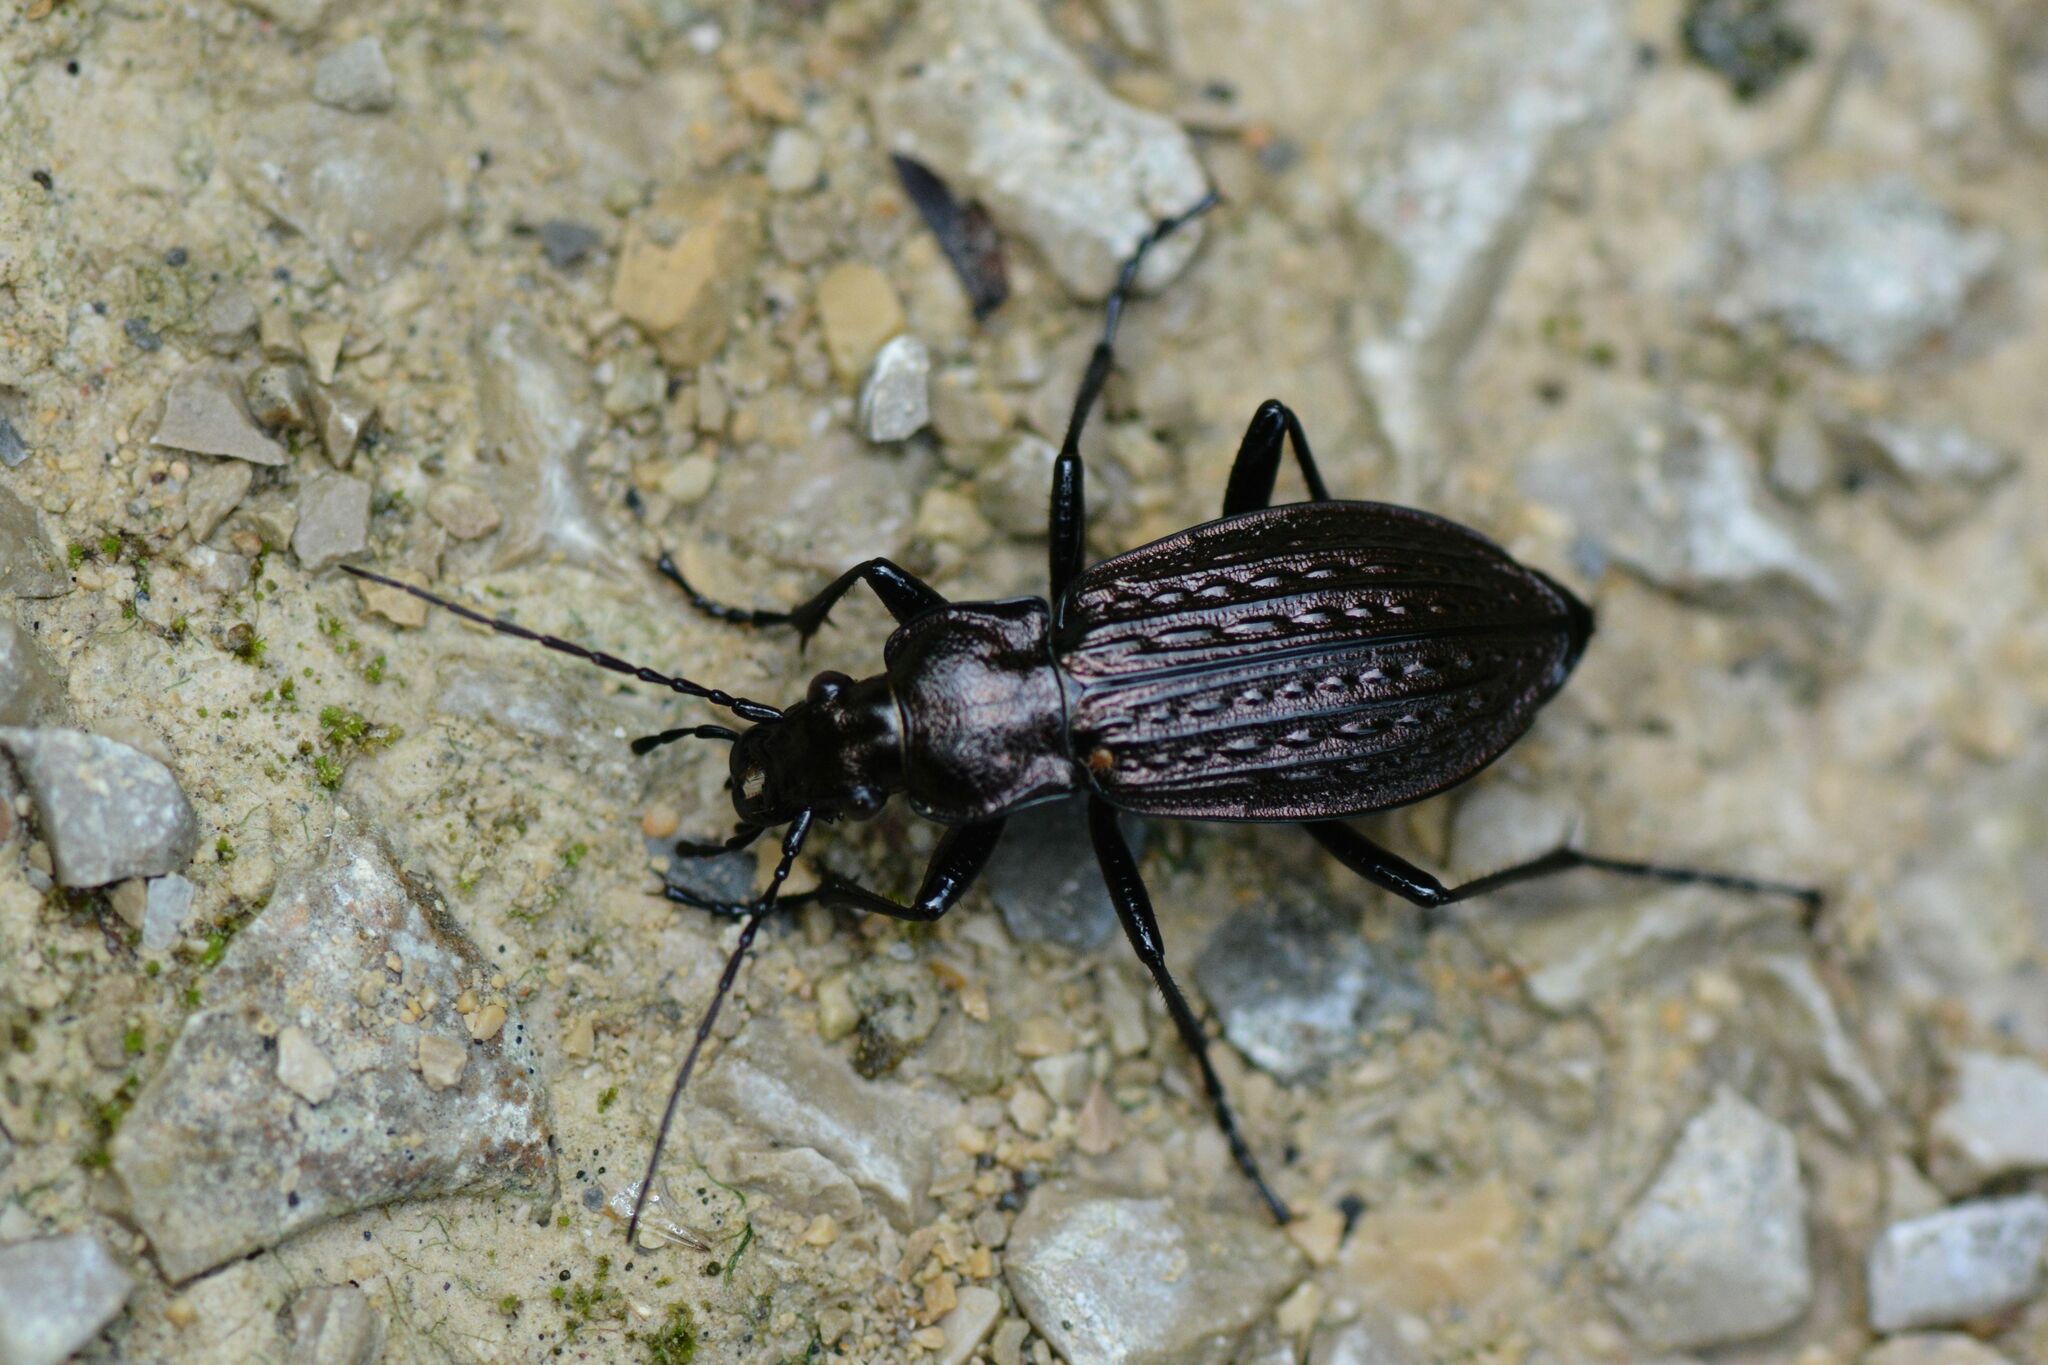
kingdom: Animalia
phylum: Arthropoda
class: Insecta
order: Coleoptera
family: Carabidae
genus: Carabus
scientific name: Carabus granulatus
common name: Granulate ground beetle
